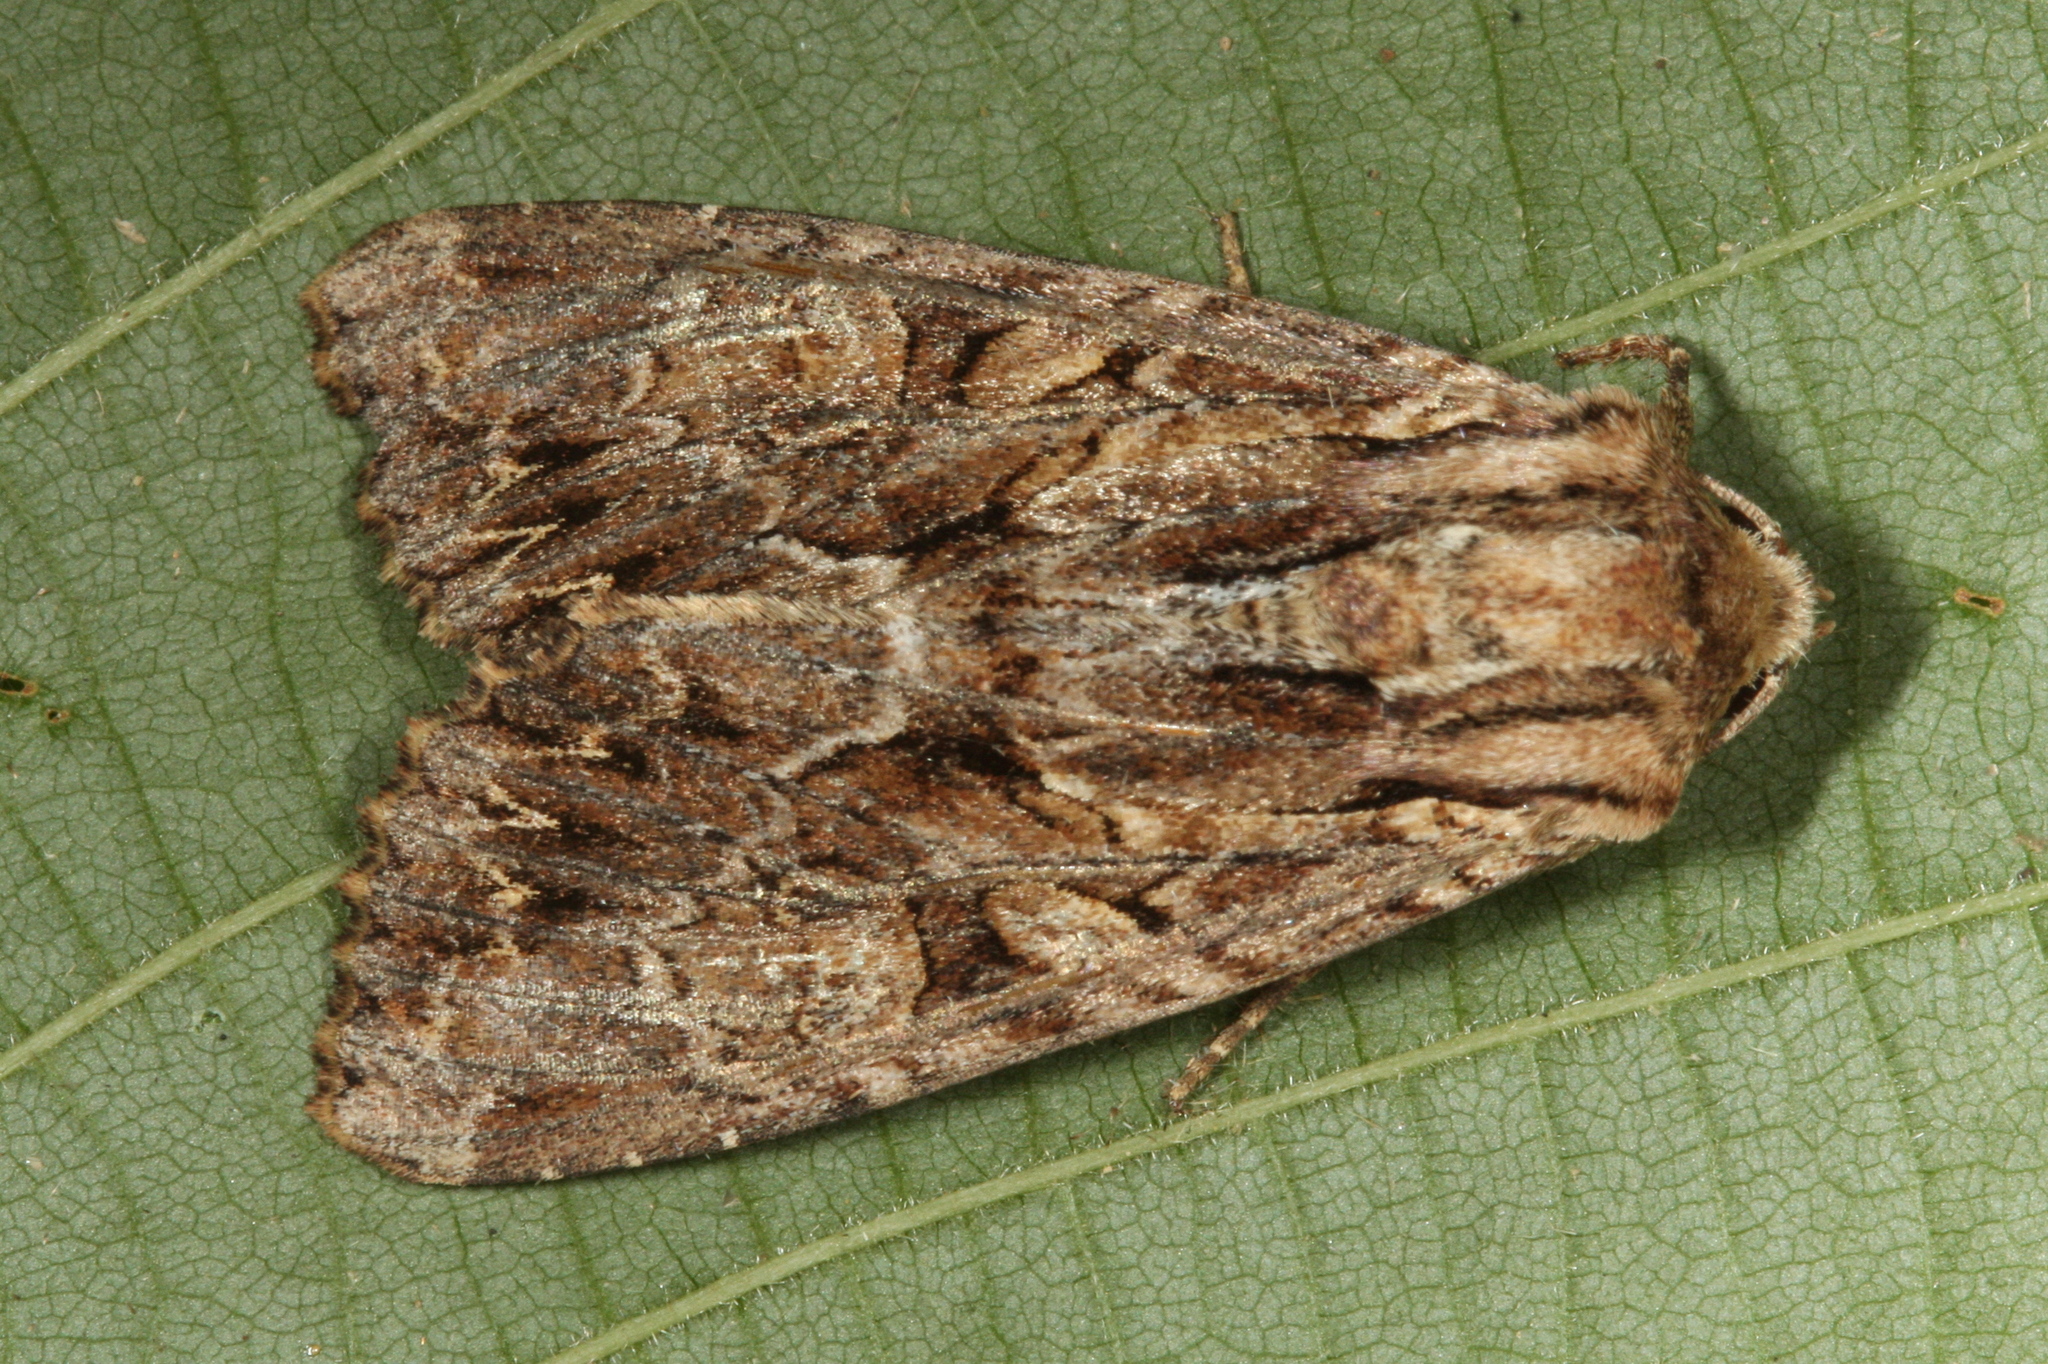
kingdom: Animalia
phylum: Arthropoda
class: Insecta
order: Lepidoptera
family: Noctuidae
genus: Apamea
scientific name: Apamea monoglypha
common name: Dark arches
